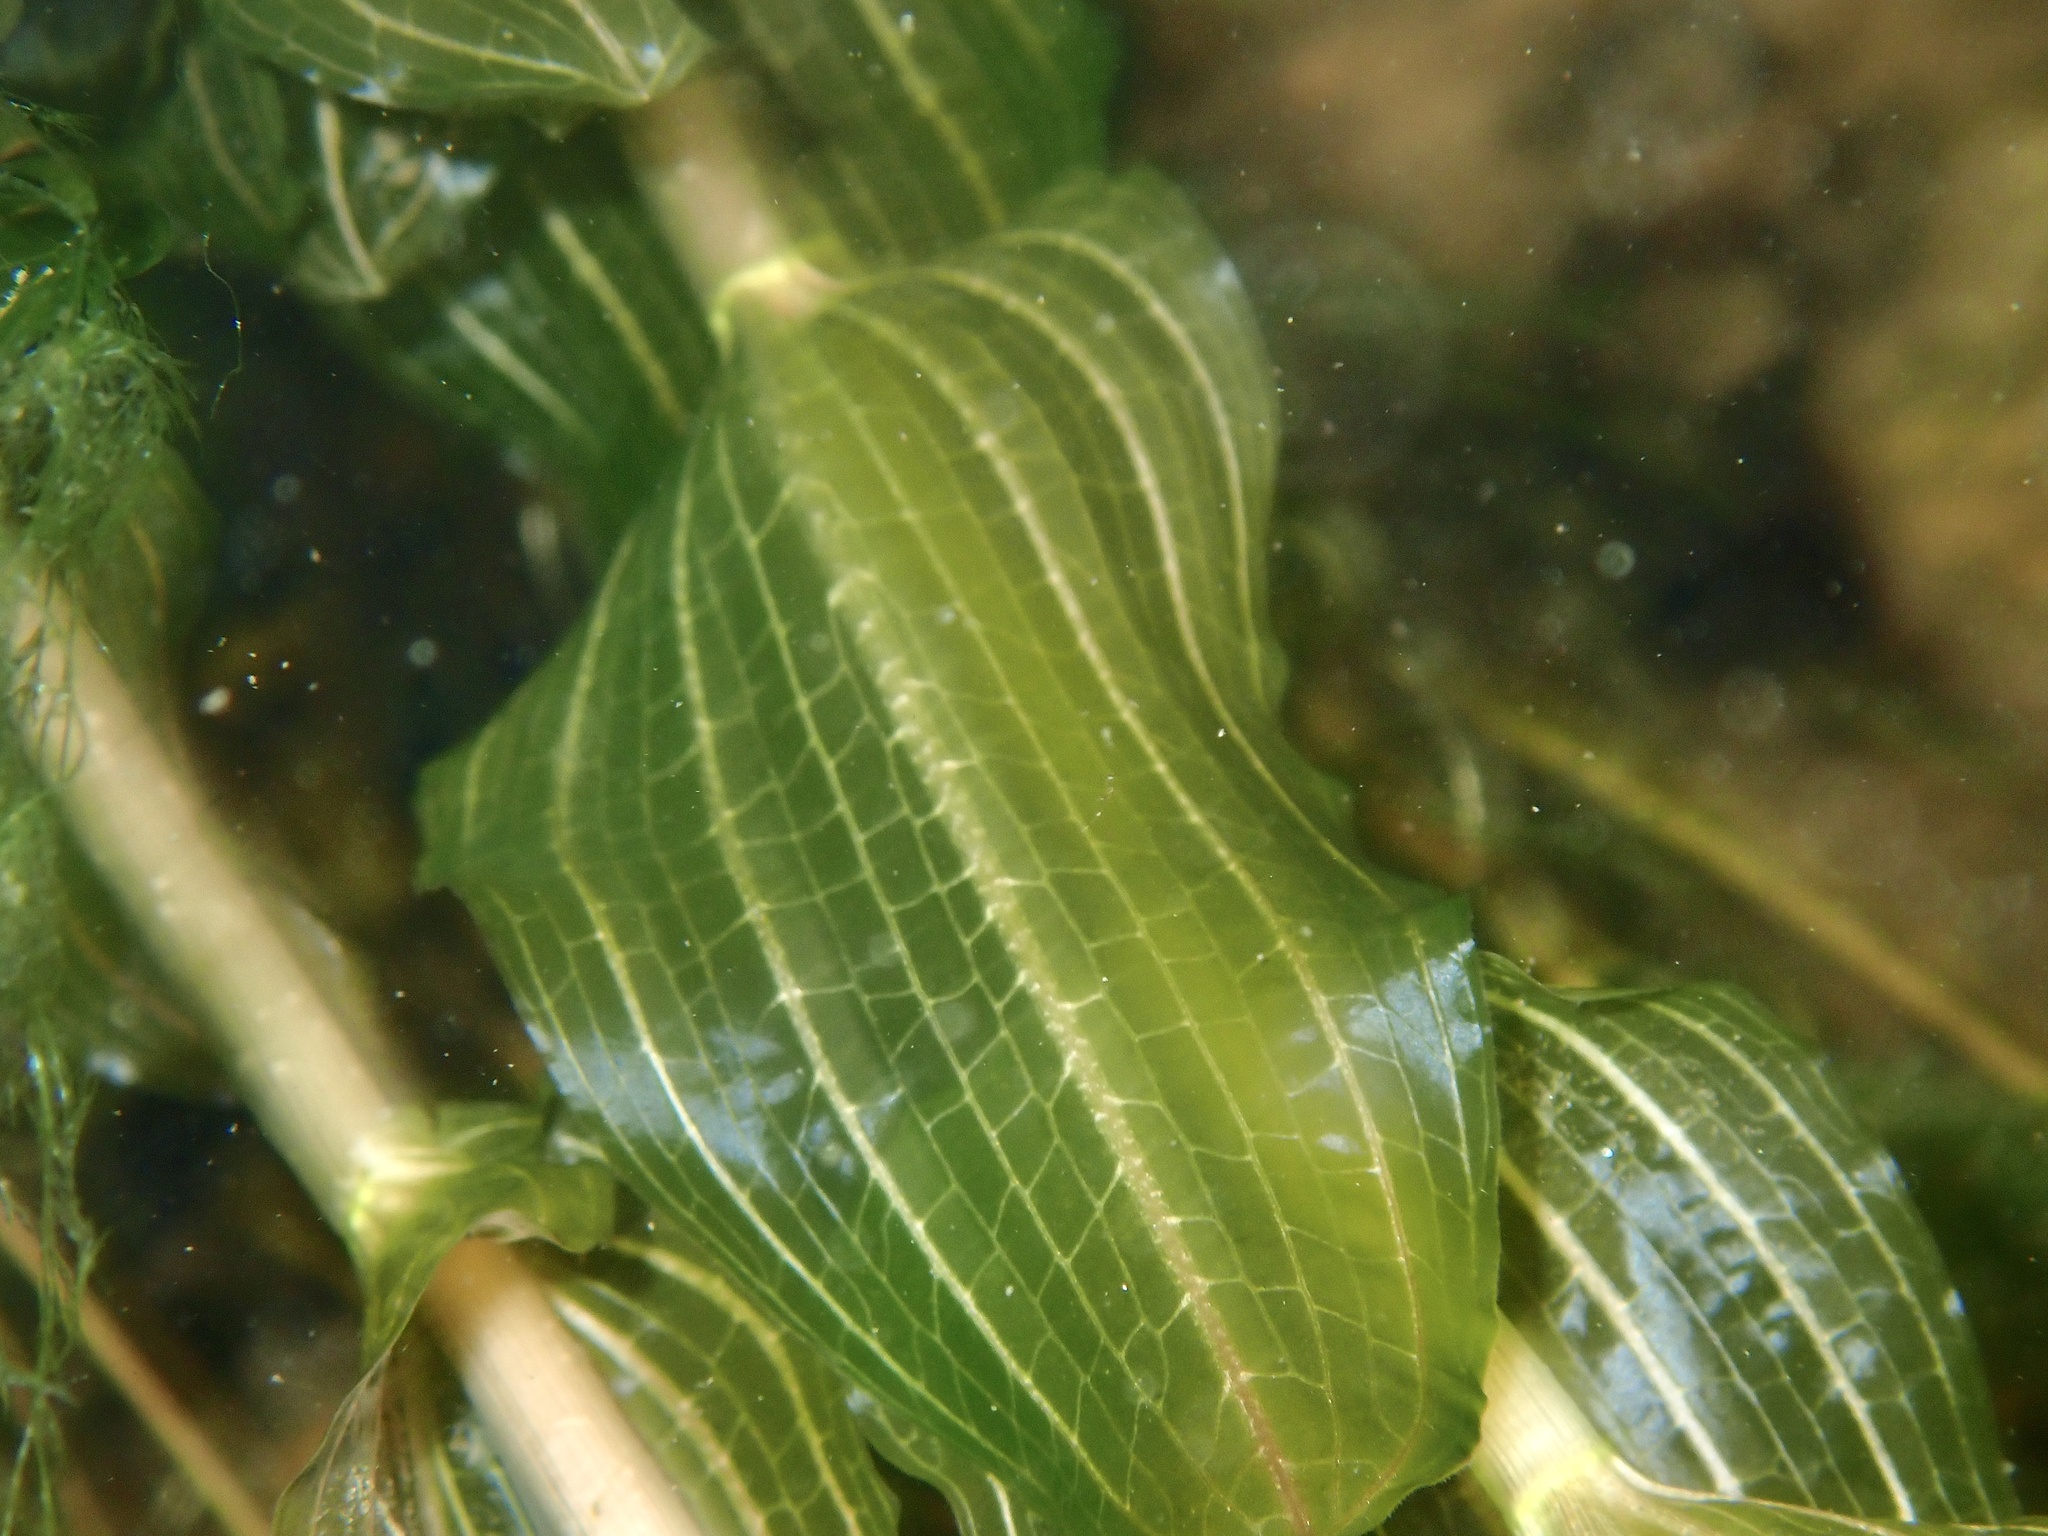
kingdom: Plantae
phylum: Tracheophyta
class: Liliopsida
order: Alismatales
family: Potamogetonaceae
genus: Potamogeton
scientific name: Potamogeton perfoliatus
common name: Perfoliate pondweed
